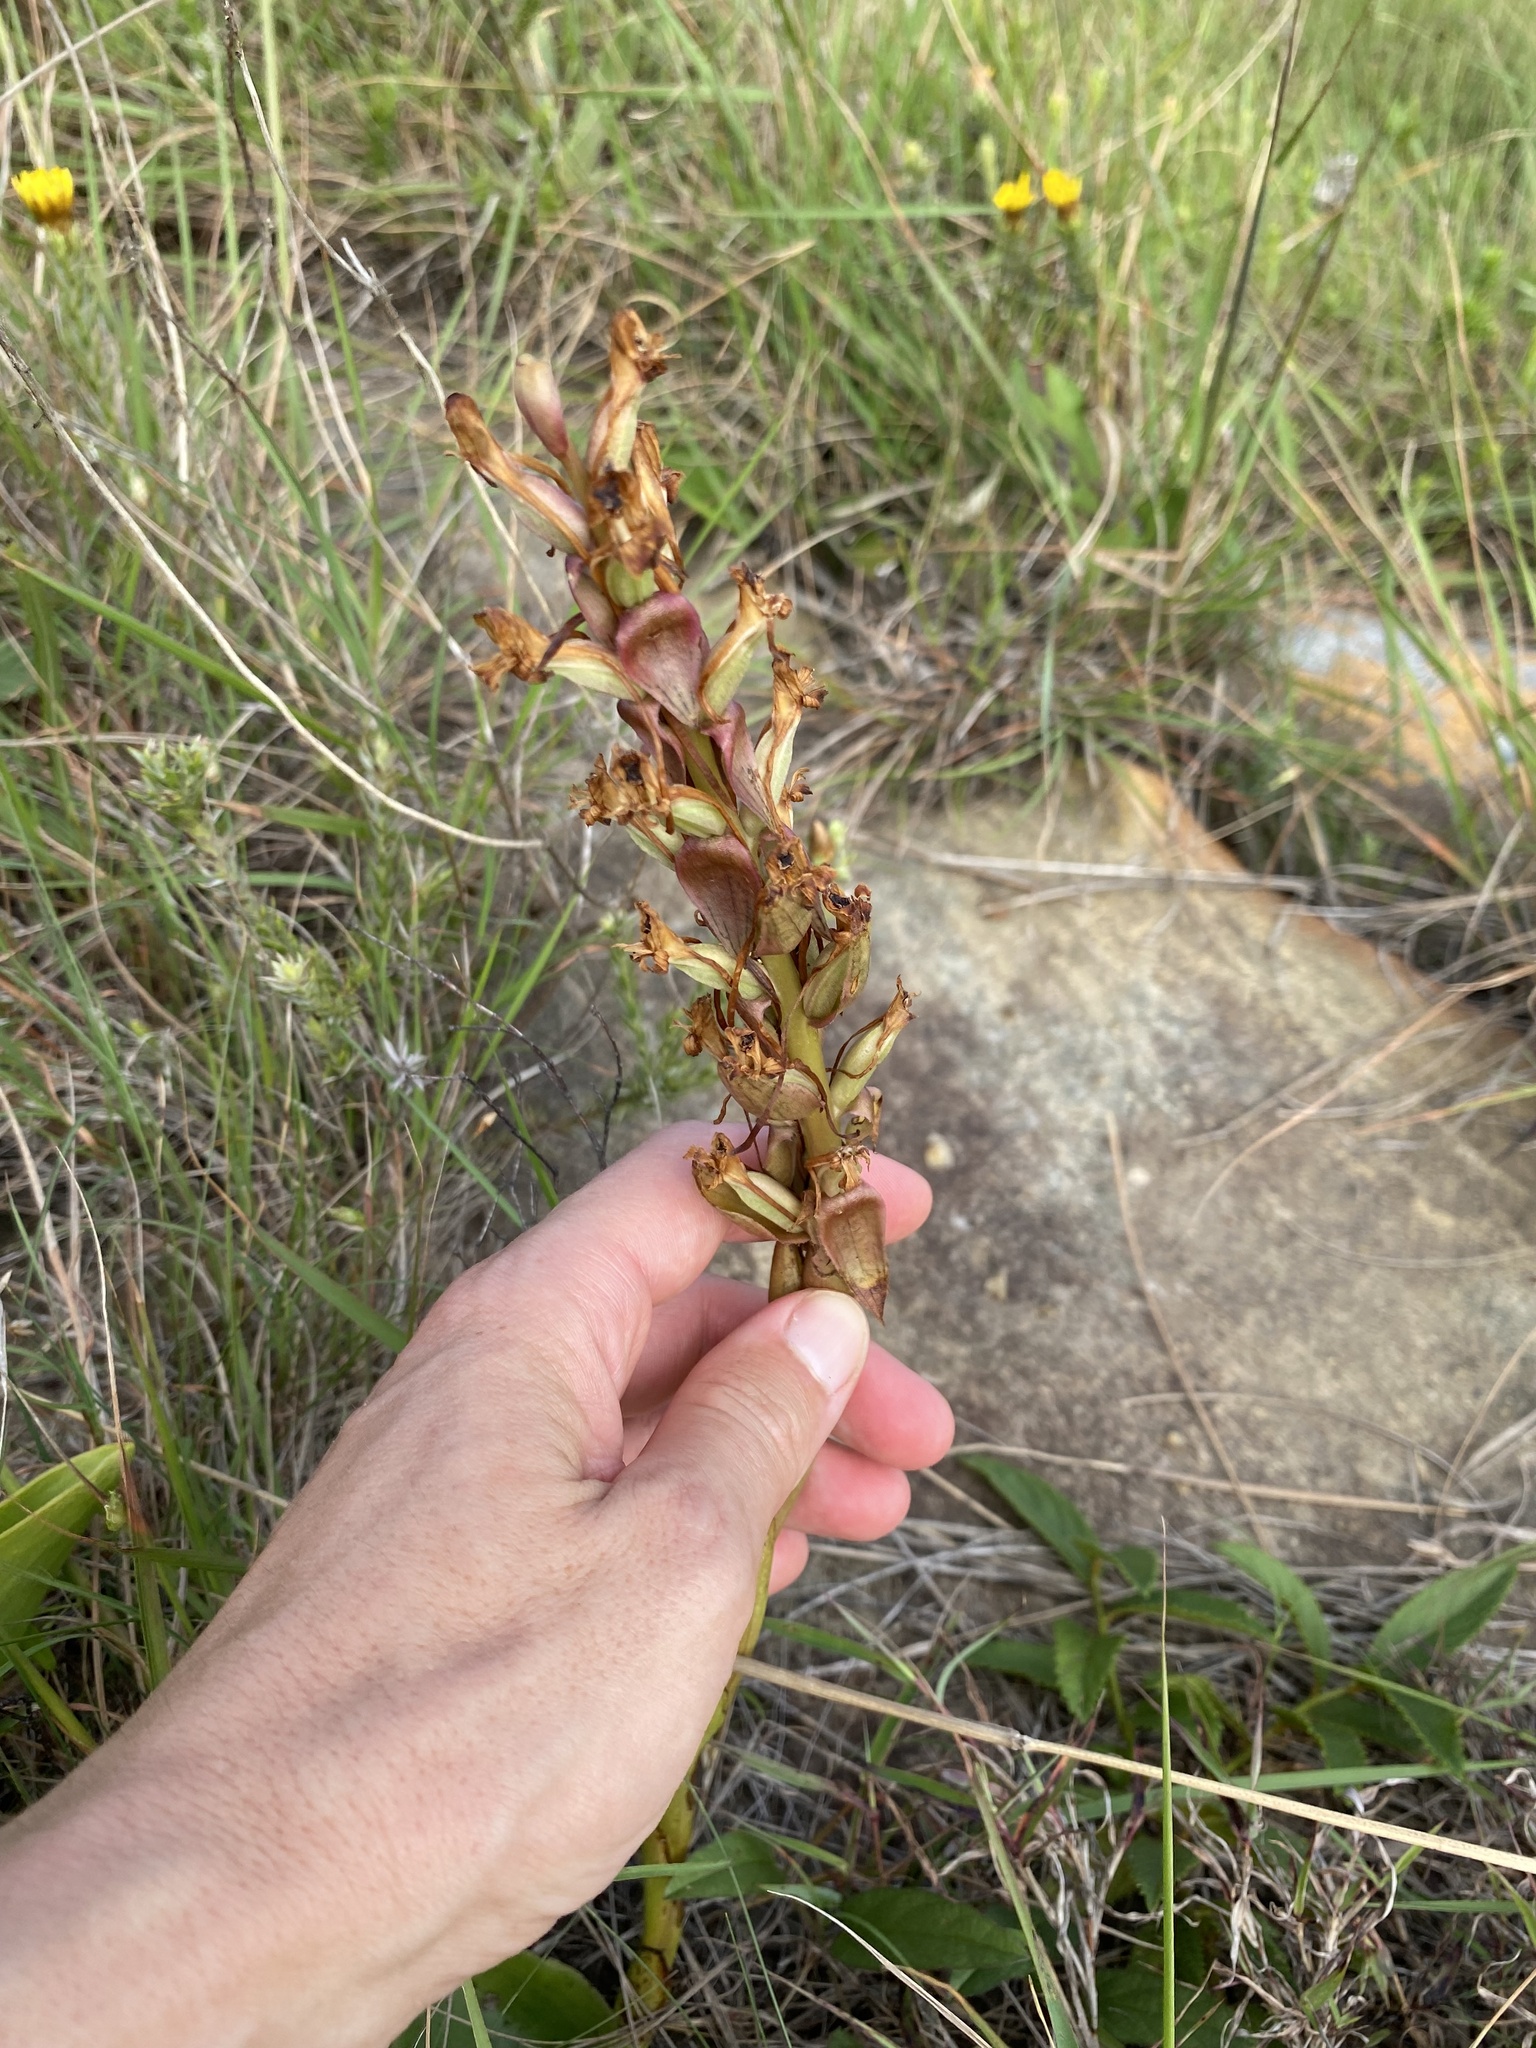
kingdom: Plantae
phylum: Tracheophyta
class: Liliopsida
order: Asparagales
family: Orchidaceae
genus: Satyrium
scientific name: Satyrium longicauda
